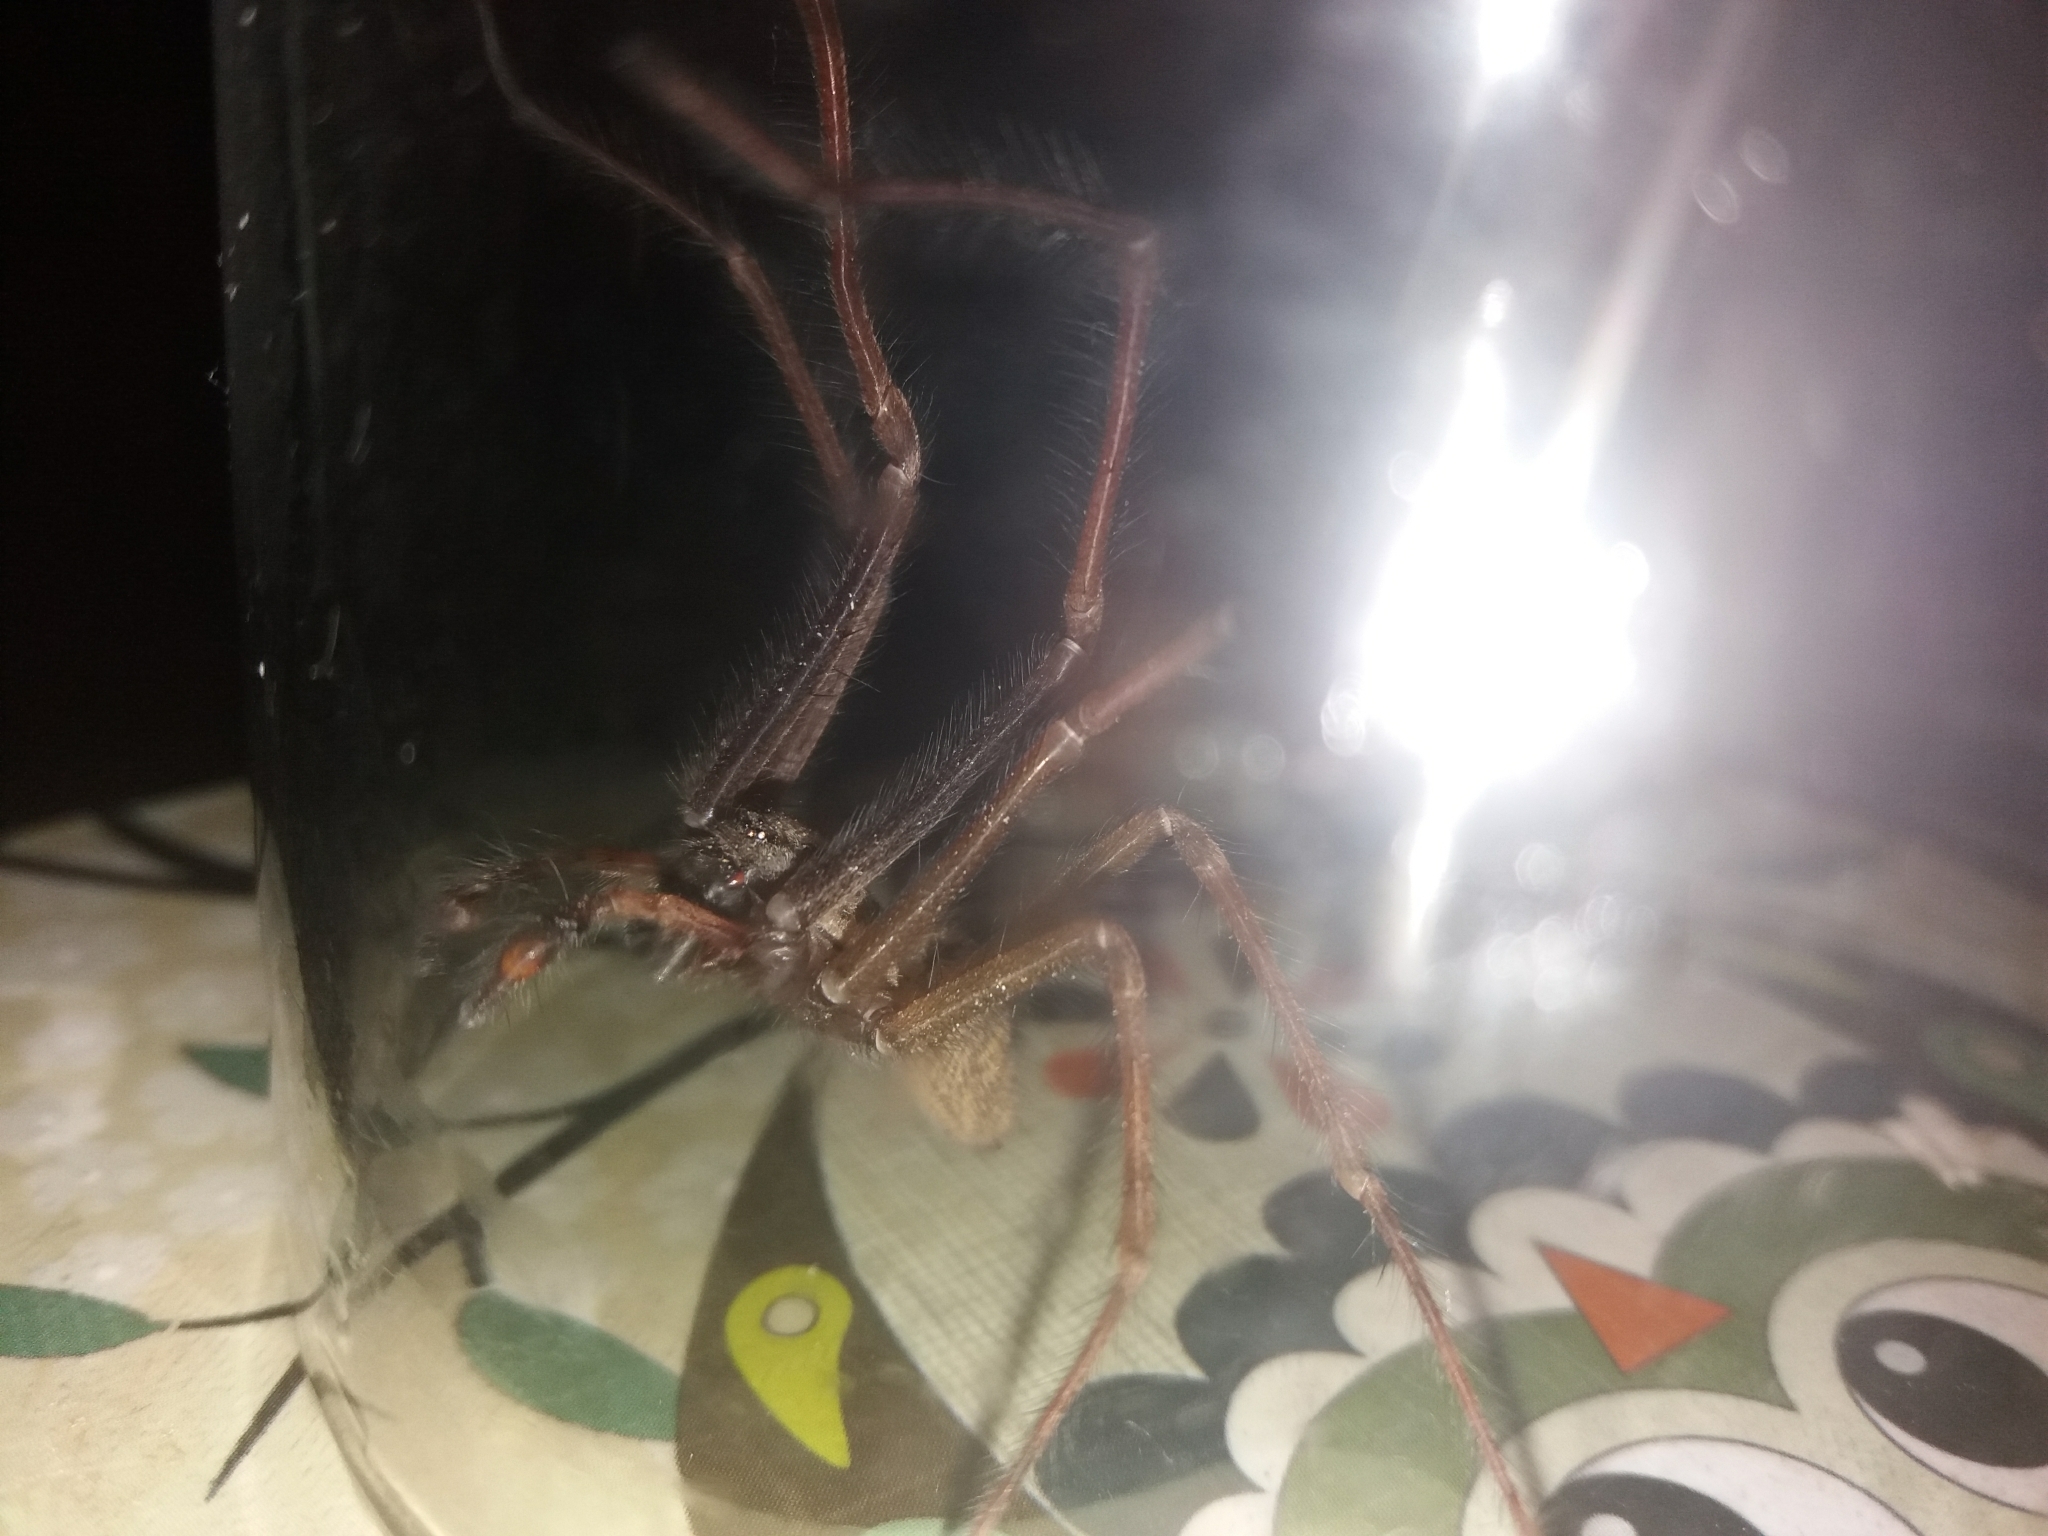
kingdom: Animalia
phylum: Arthropoda
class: Arachnida
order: Araneae
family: Agelenidae
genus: Eratigena
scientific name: Eratigena
